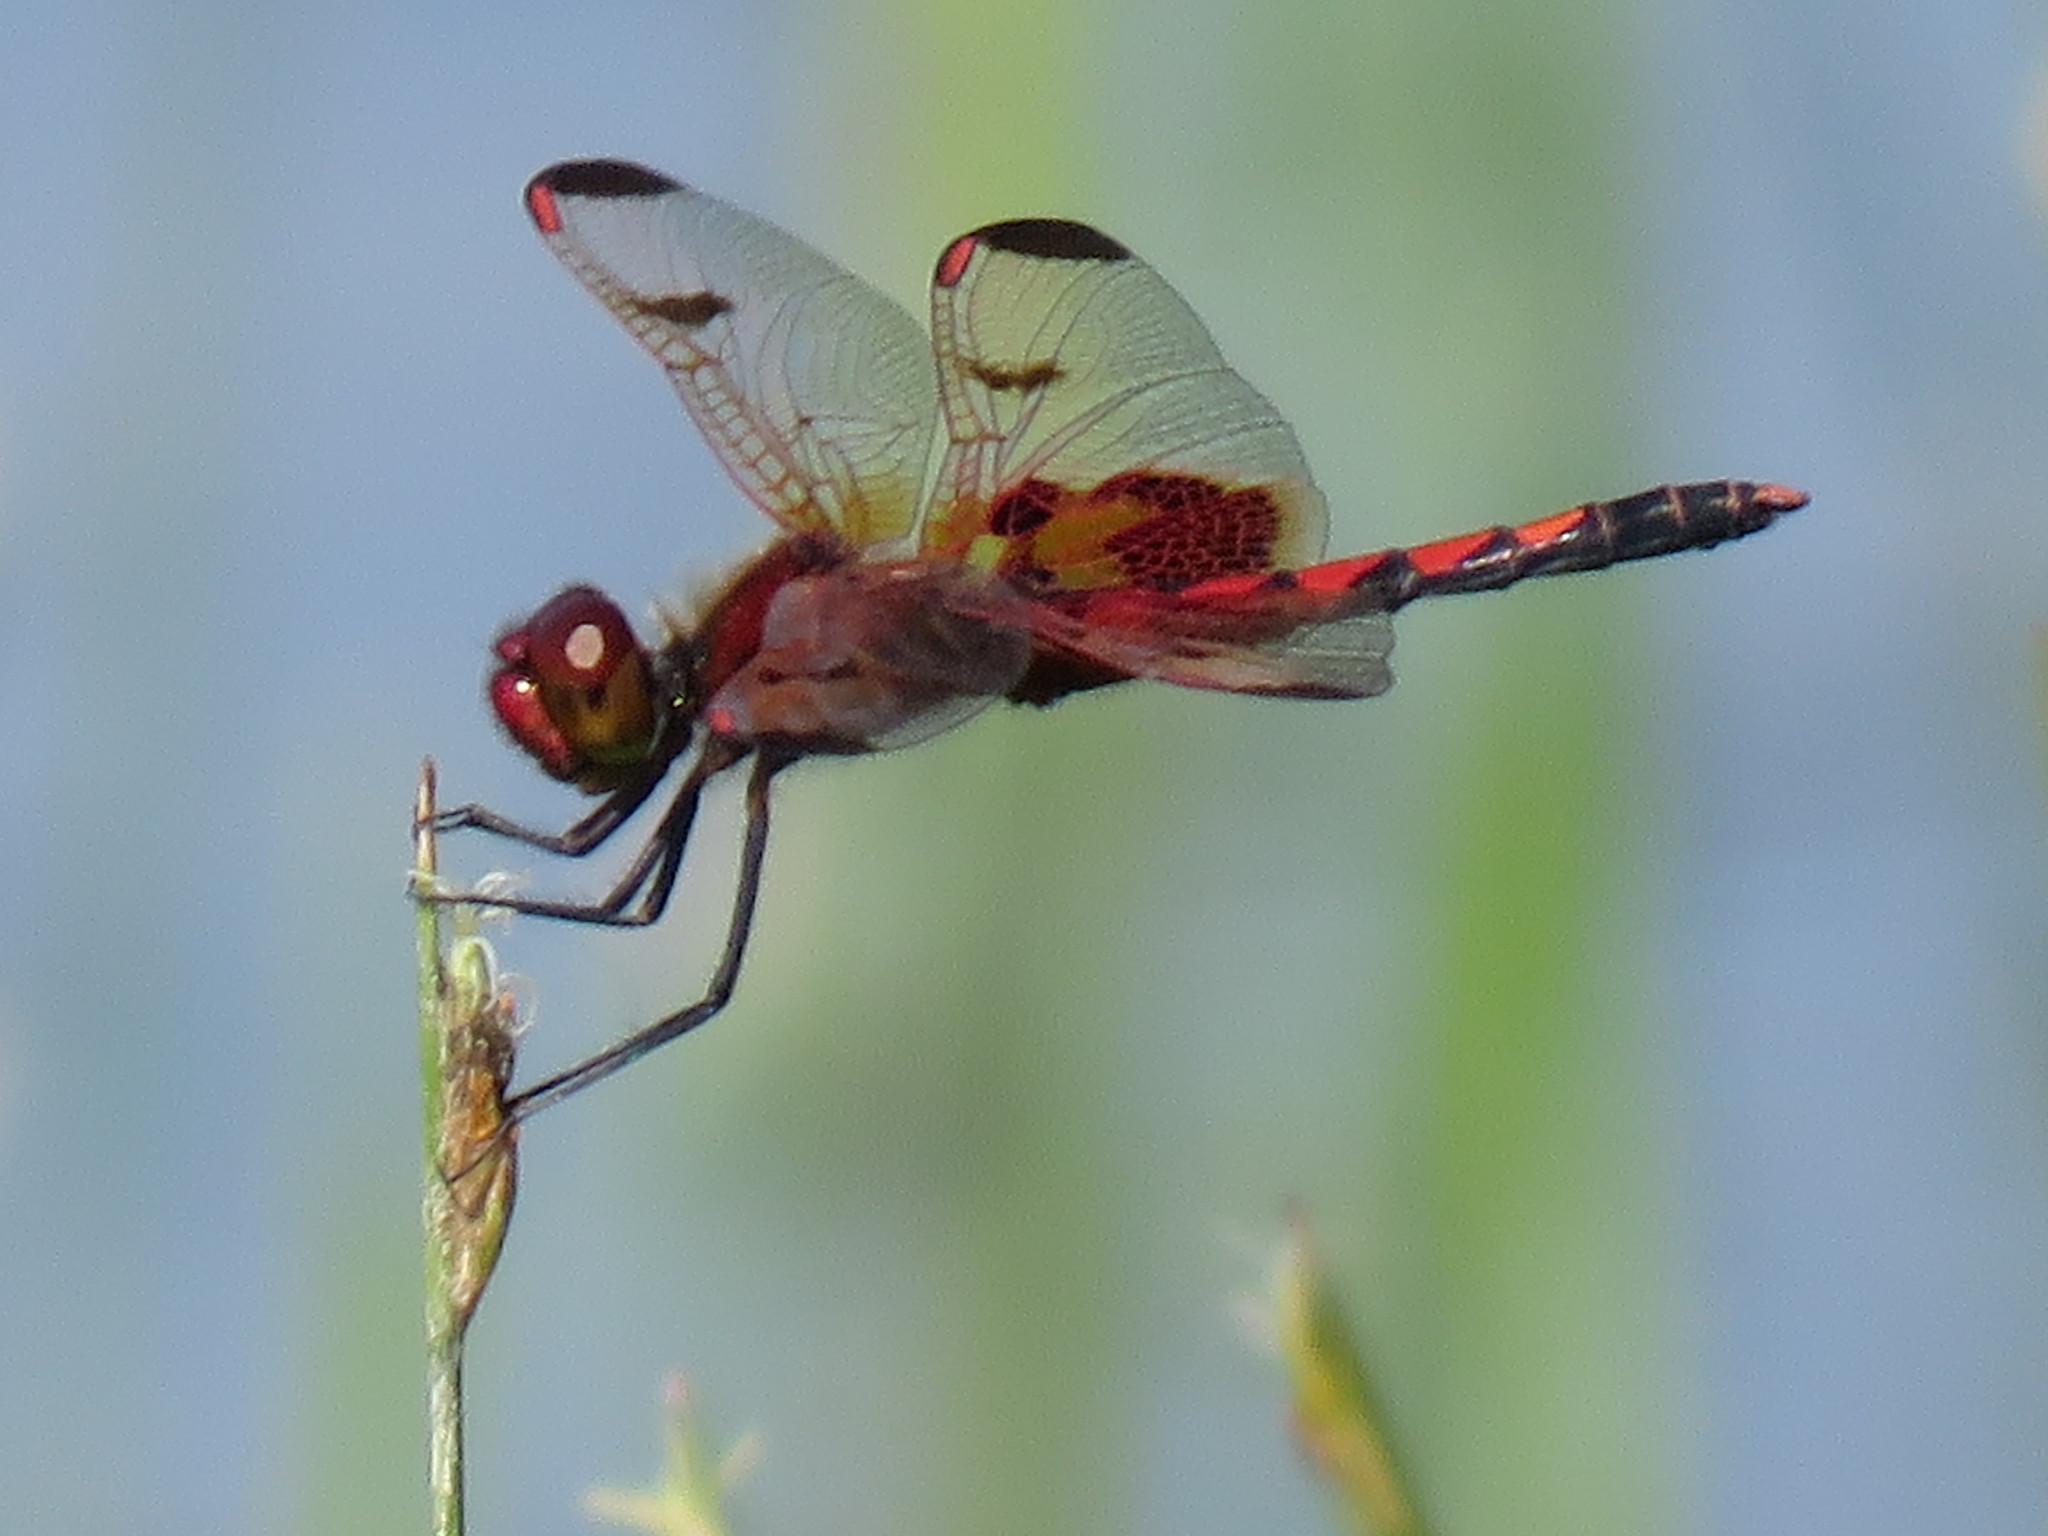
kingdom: Animalia
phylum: Arthropoda
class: Insecta
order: Odonata
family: Libellulidae
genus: Celithemis
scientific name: Celithemis elisa
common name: Calico pennant
